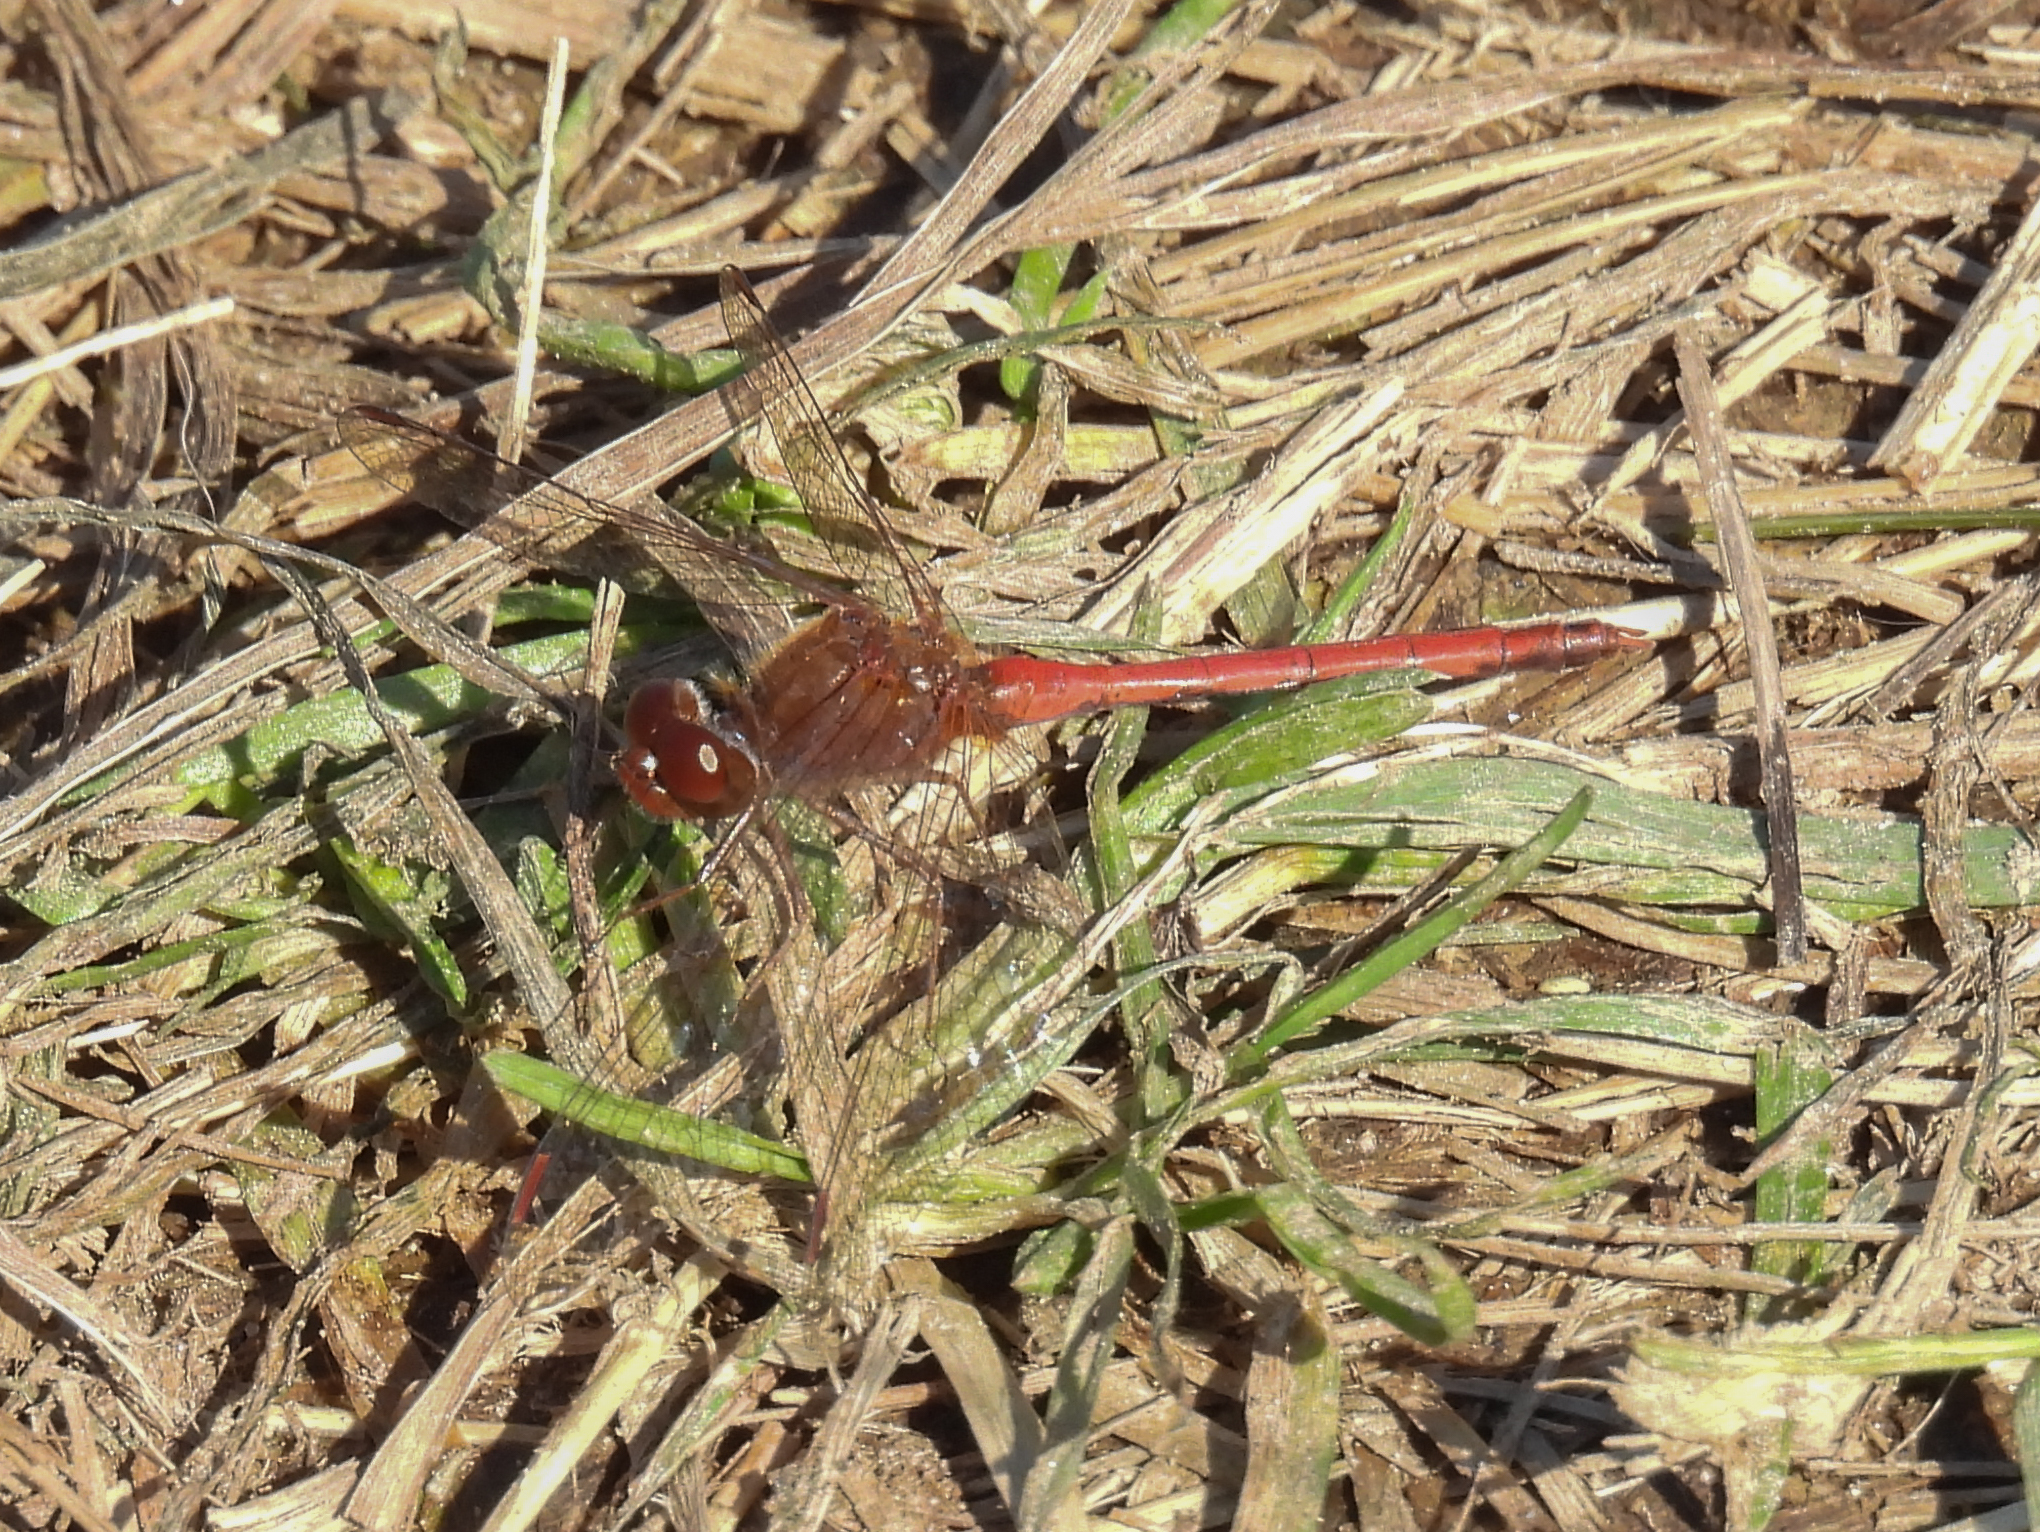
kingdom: Animalia
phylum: Arthropoda
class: Insecta
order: Odonata
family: Libellulidae
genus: Sympetrum
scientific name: Sympetrum vicinum
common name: Autumn meadowhawk
